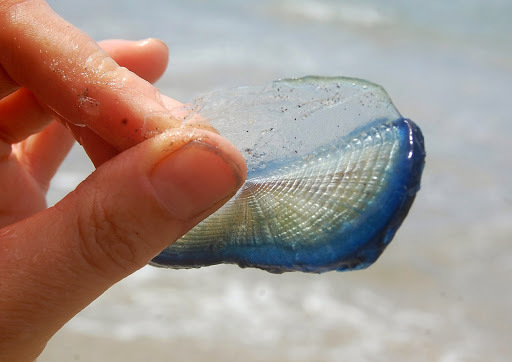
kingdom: Animalia
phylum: Cnidaria
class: Hydrozoa
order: Anthoathecata
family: Porpitidae
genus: Velella
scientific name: Velella velella
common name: By-the-wind-sailor
